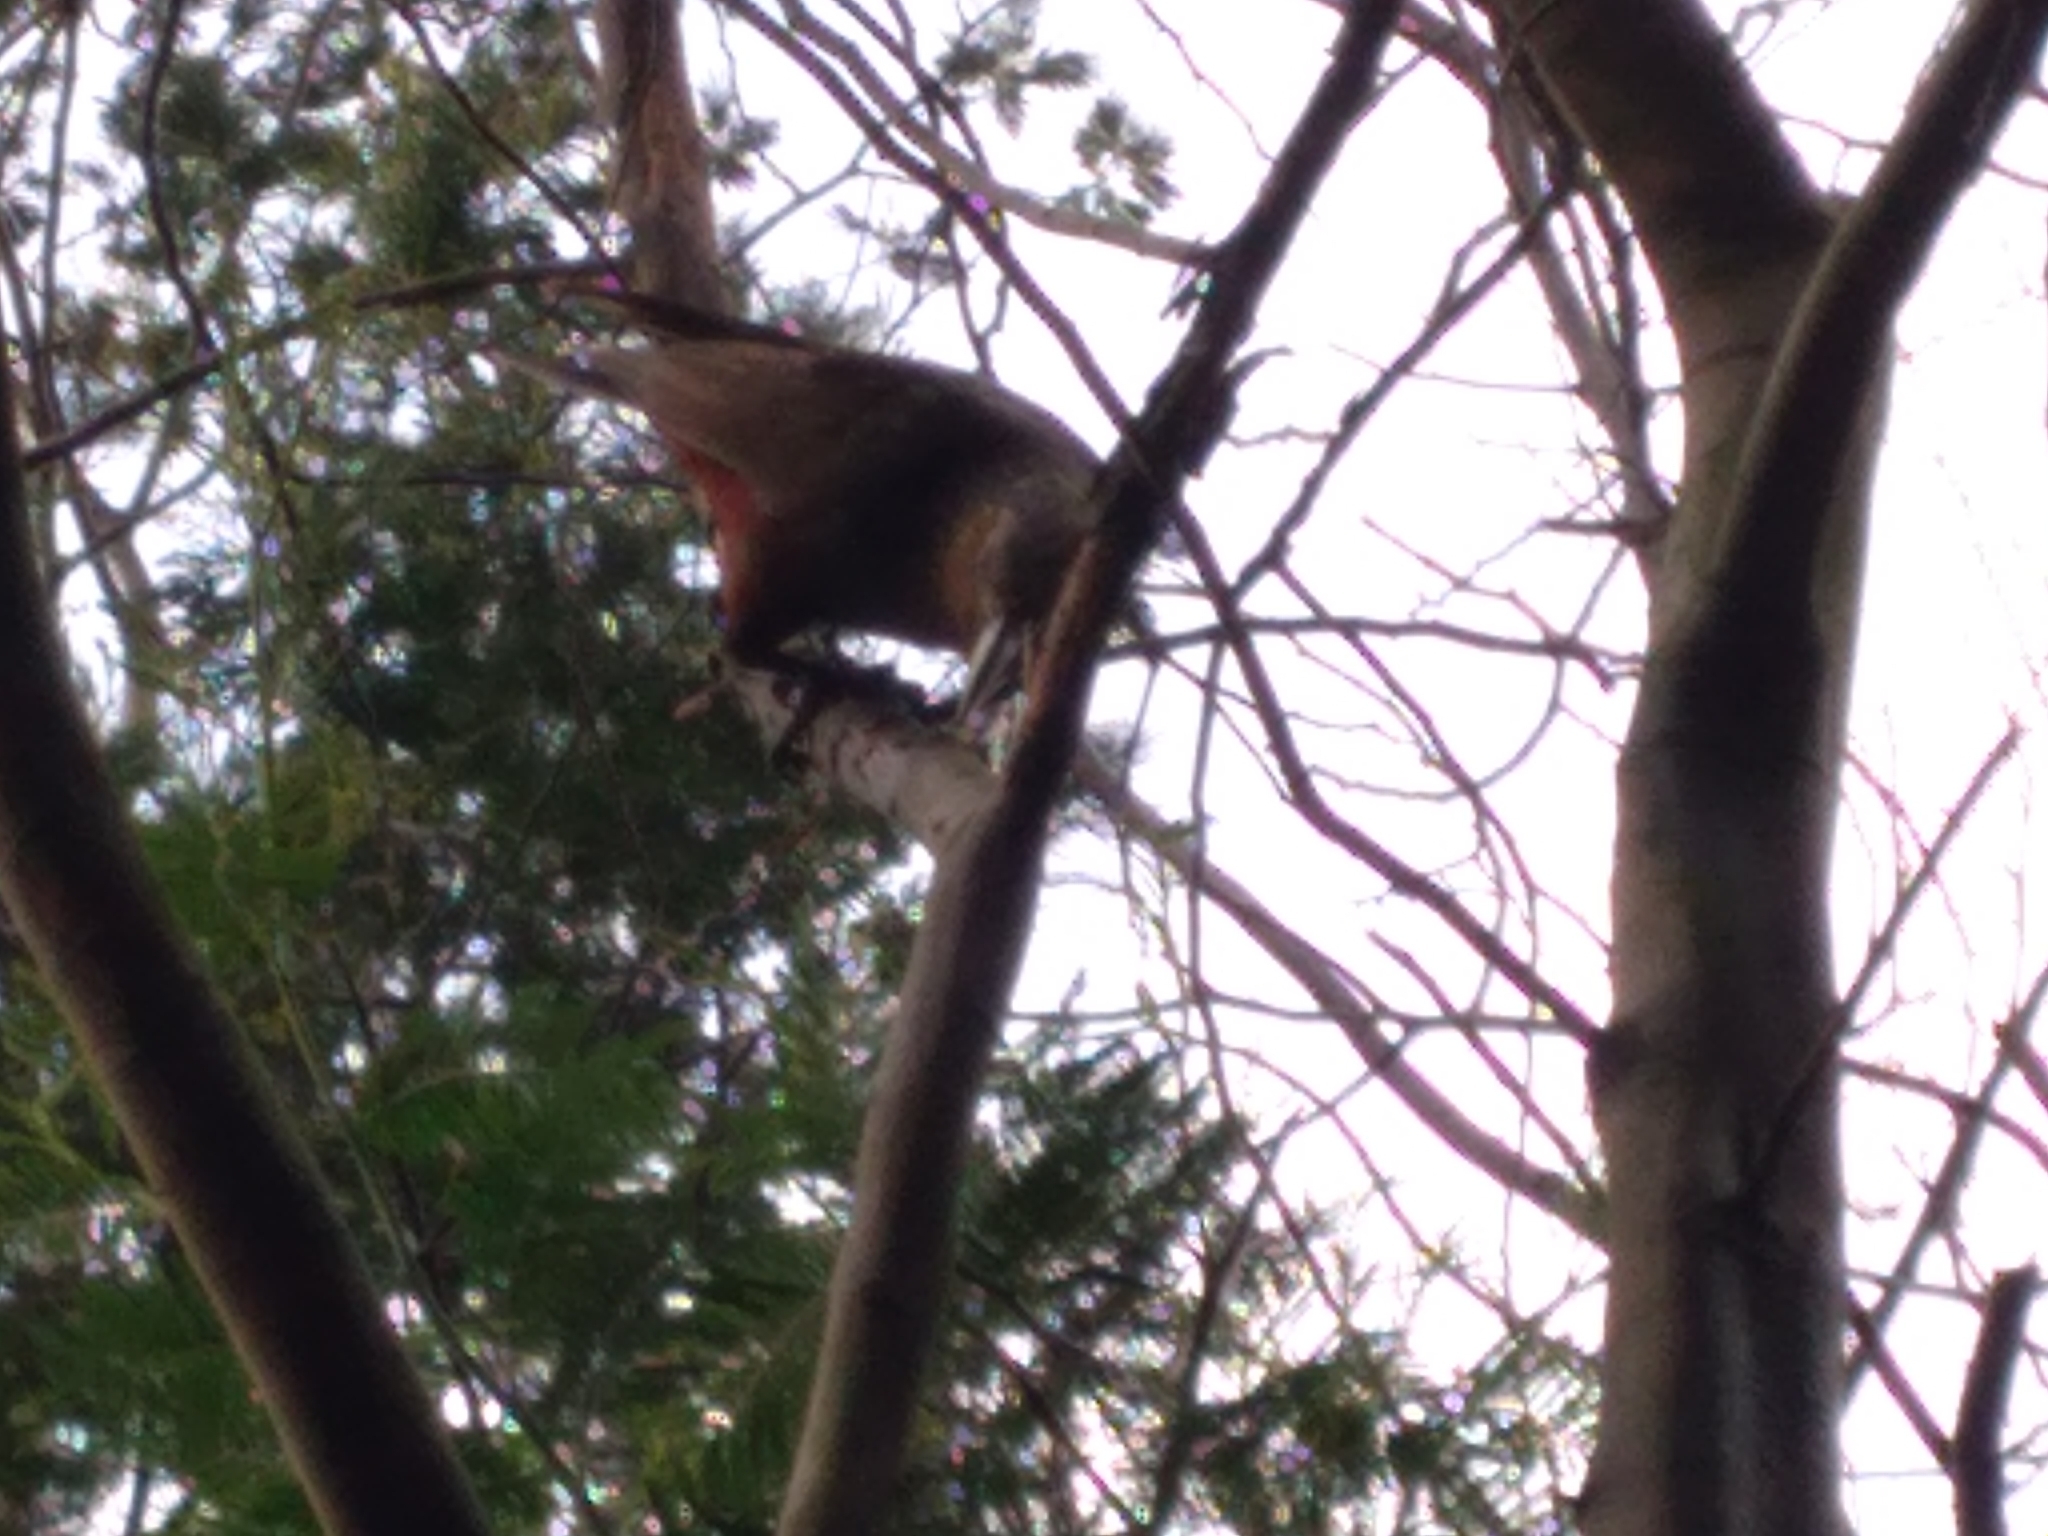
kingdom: Animalia
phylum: Chordata
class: Aves
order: Psittaciformes
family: Psittacidae
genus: Nestor
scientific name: Nestor meridionalis
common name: New zealand kaka
